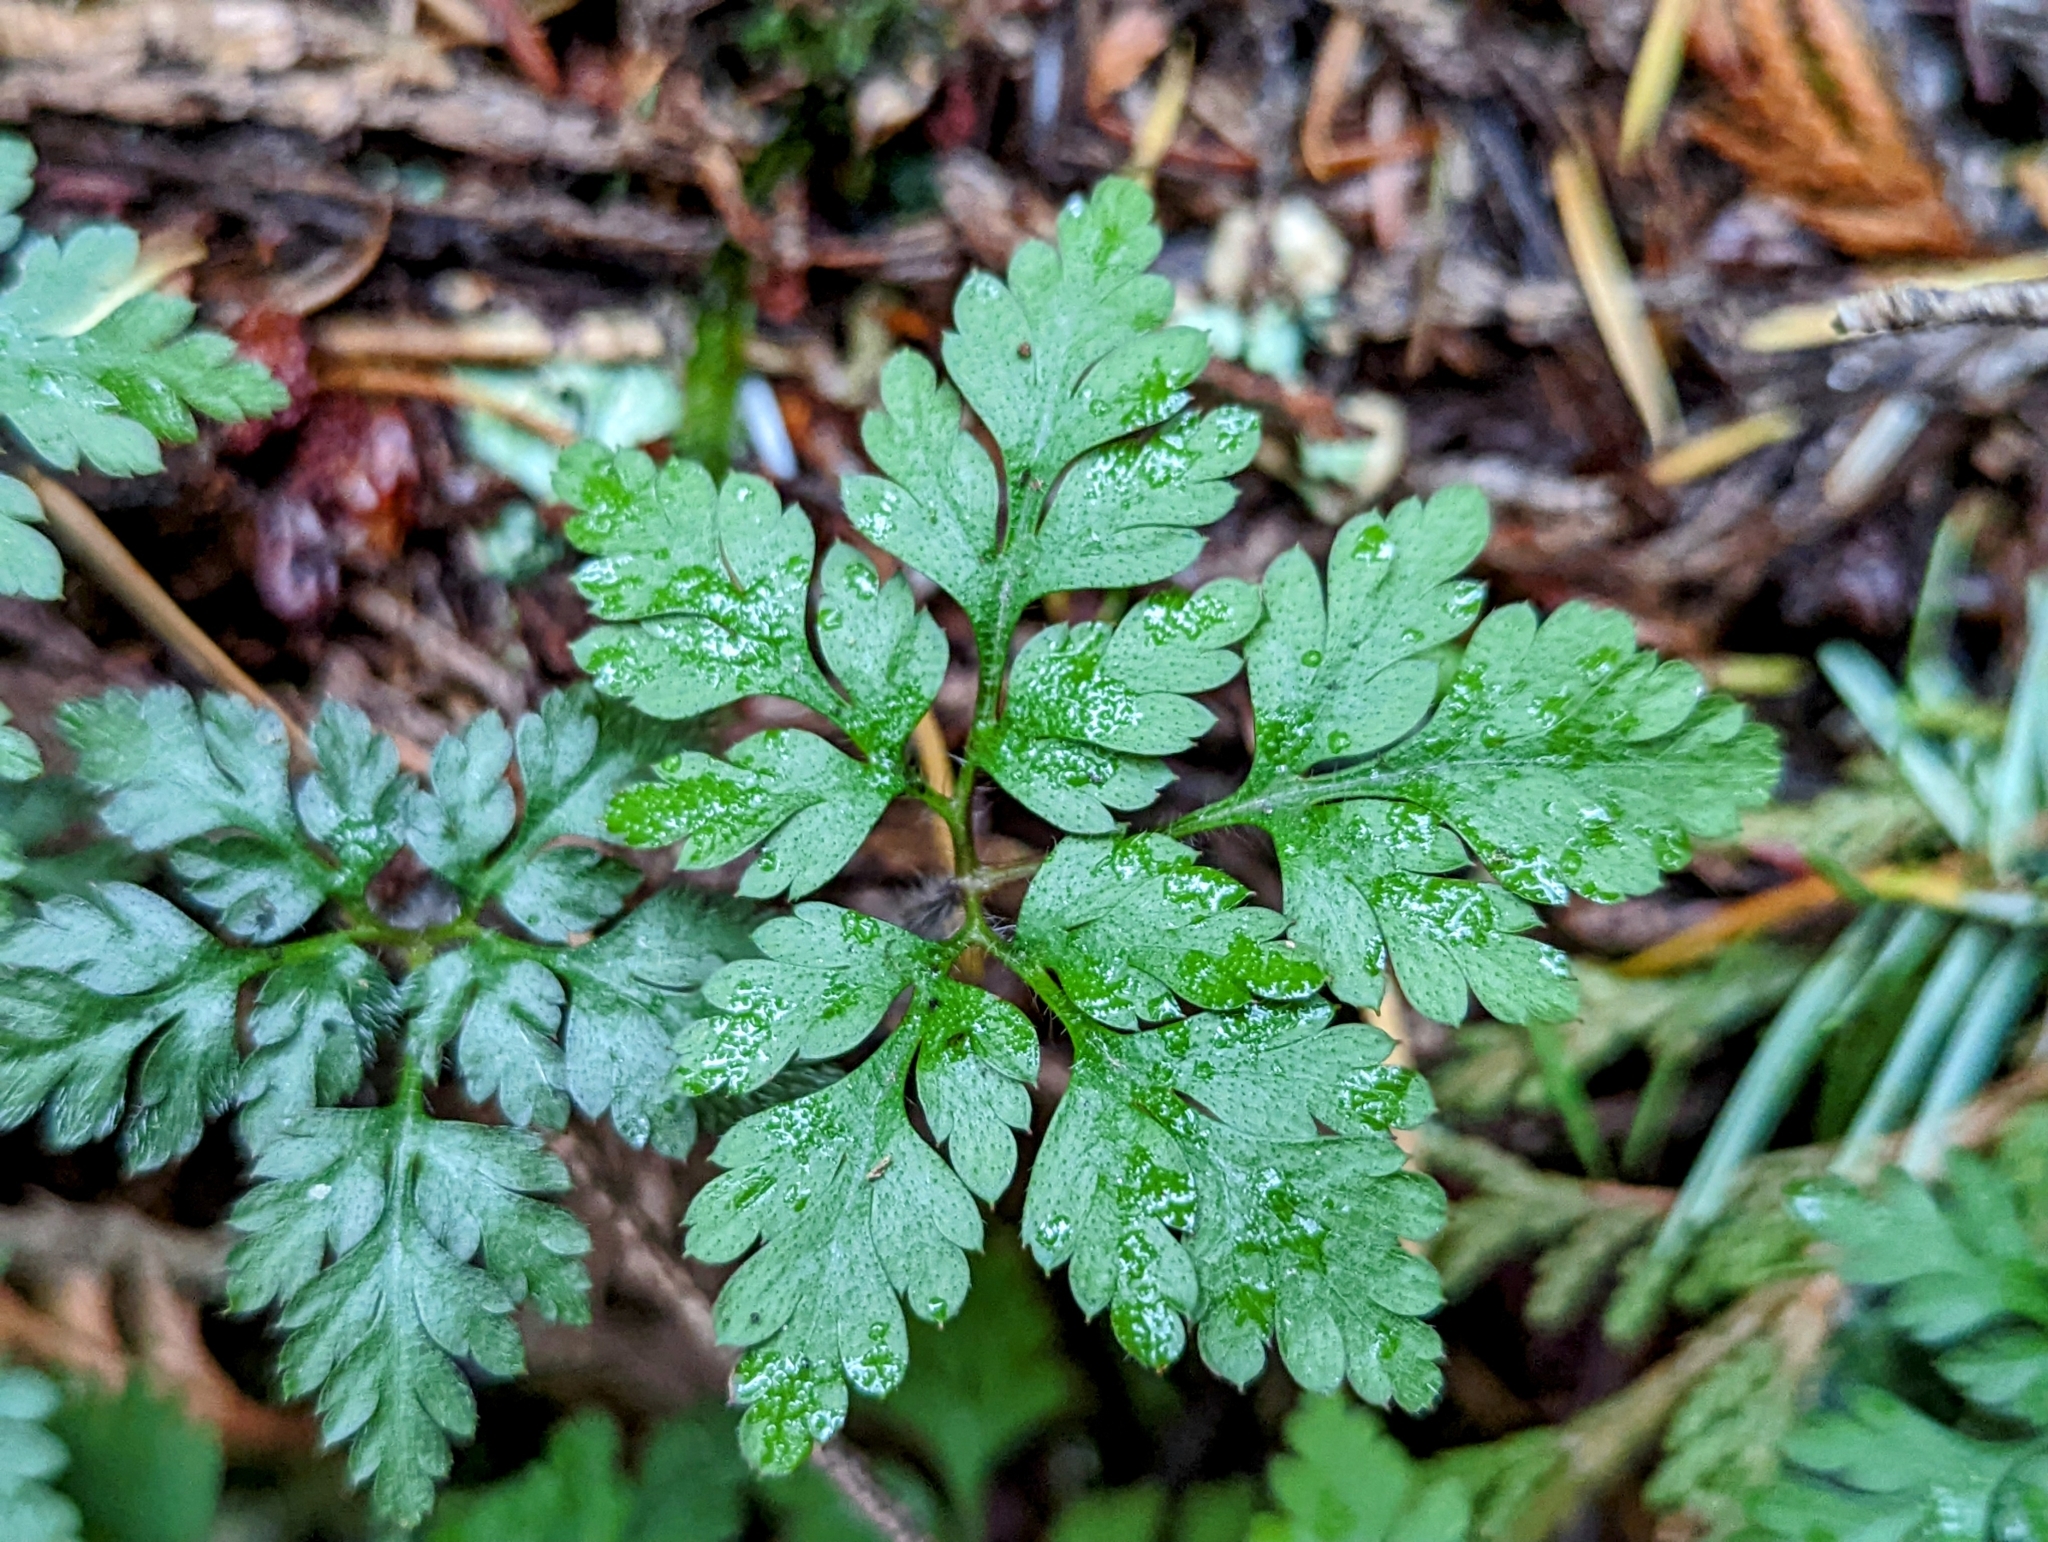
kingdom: Plantae
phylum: Tracheophyta
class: Magnoliopsida
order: Geraniales
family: Geraniaceae
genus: Geranium
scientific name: Geranium robertianum
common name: Herb-robert
